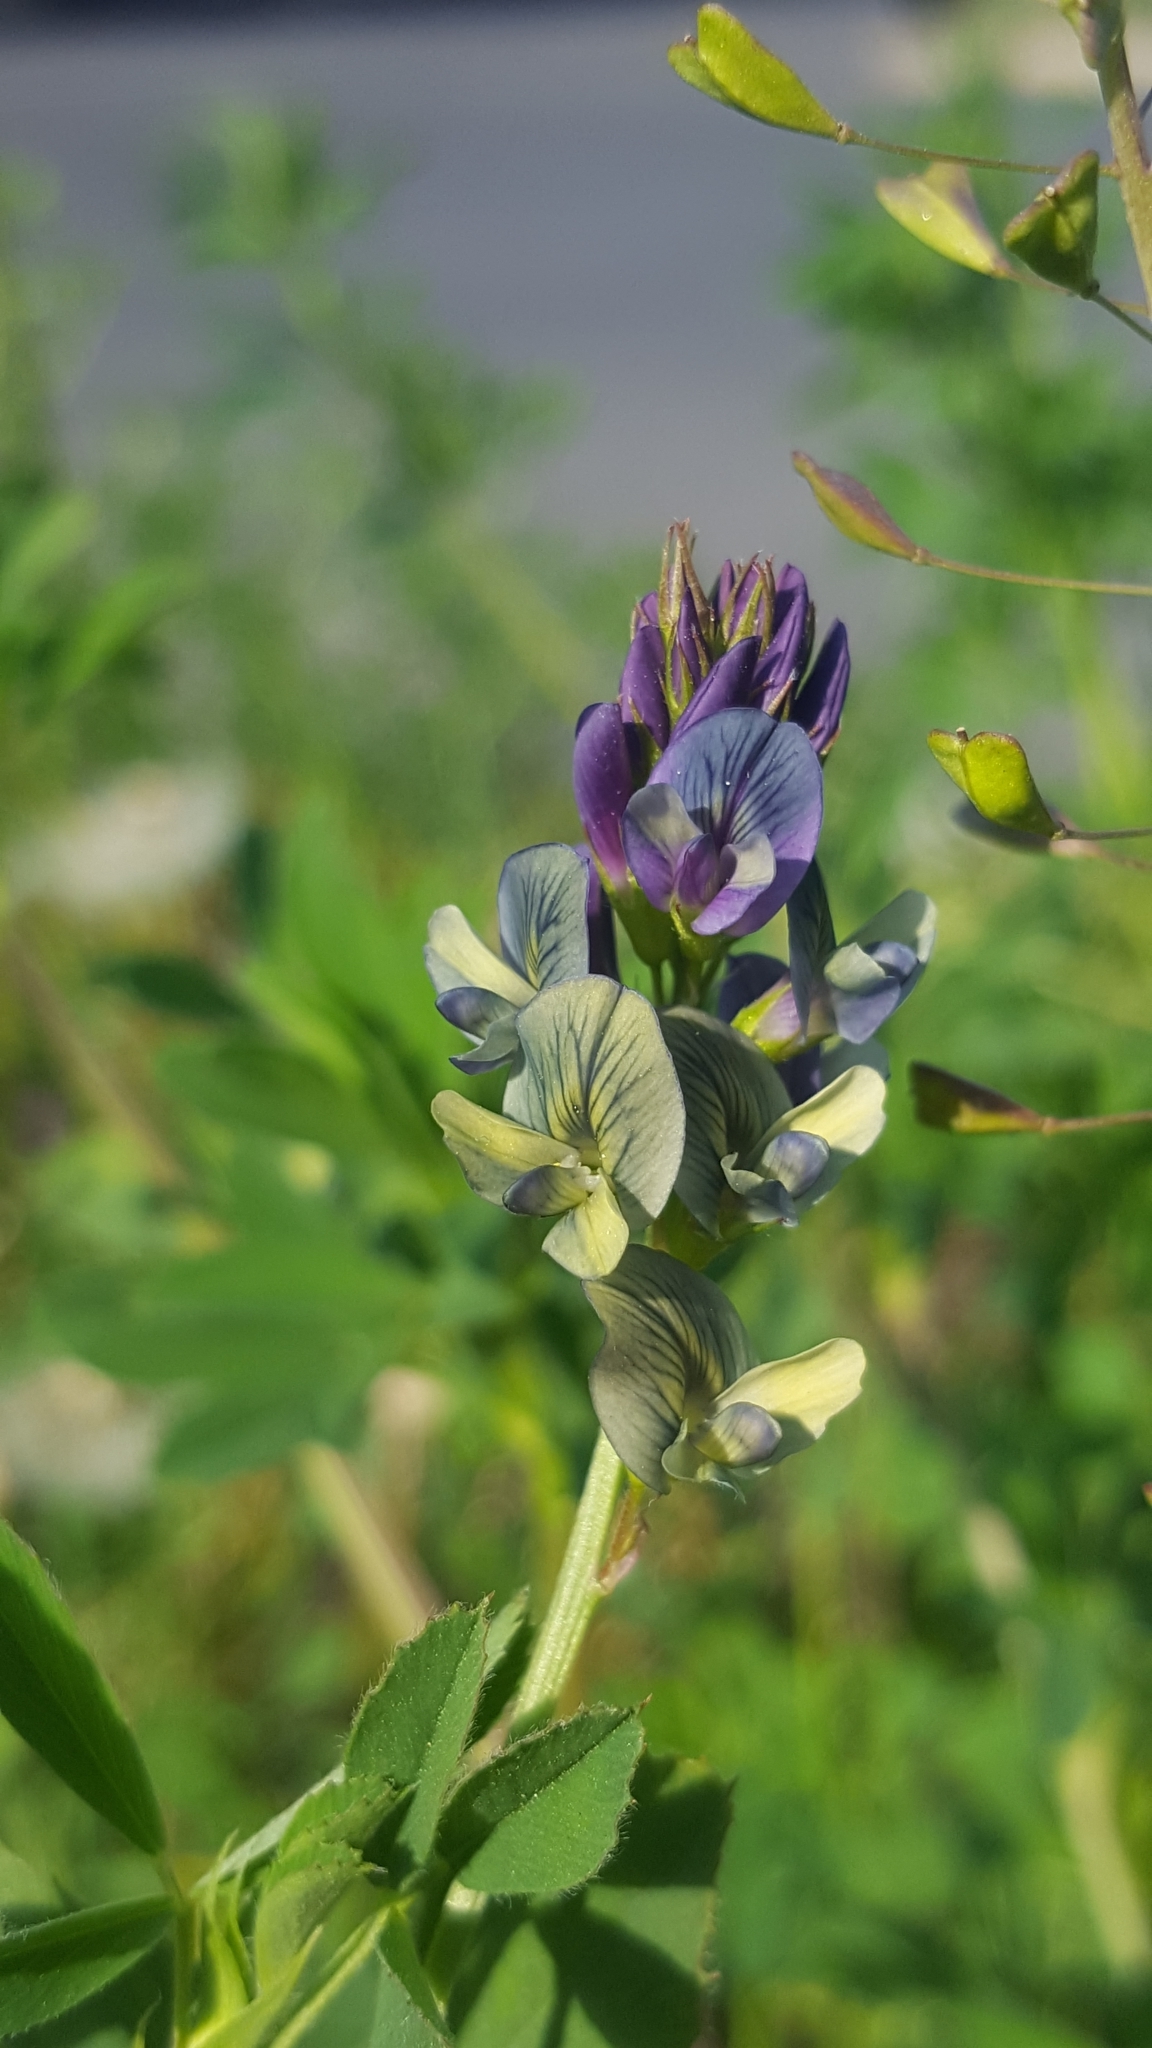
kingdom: Plantae
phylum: Tracheophyta
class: Magnoliopsida
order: Fabales
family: Fabaceae
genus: Medicago
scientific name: Medicago varia
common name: Sand lucerne
